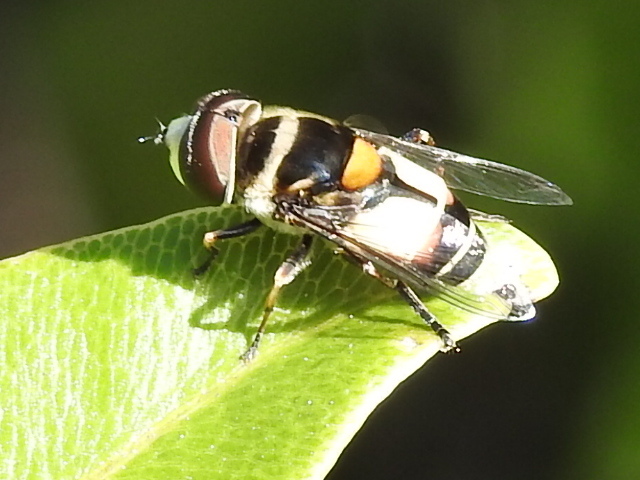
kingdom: Animalia
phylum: Arthropoda
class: Insecta
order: Diptera
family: Syrphidae
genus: Palpada
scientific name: Palpada albifrons
